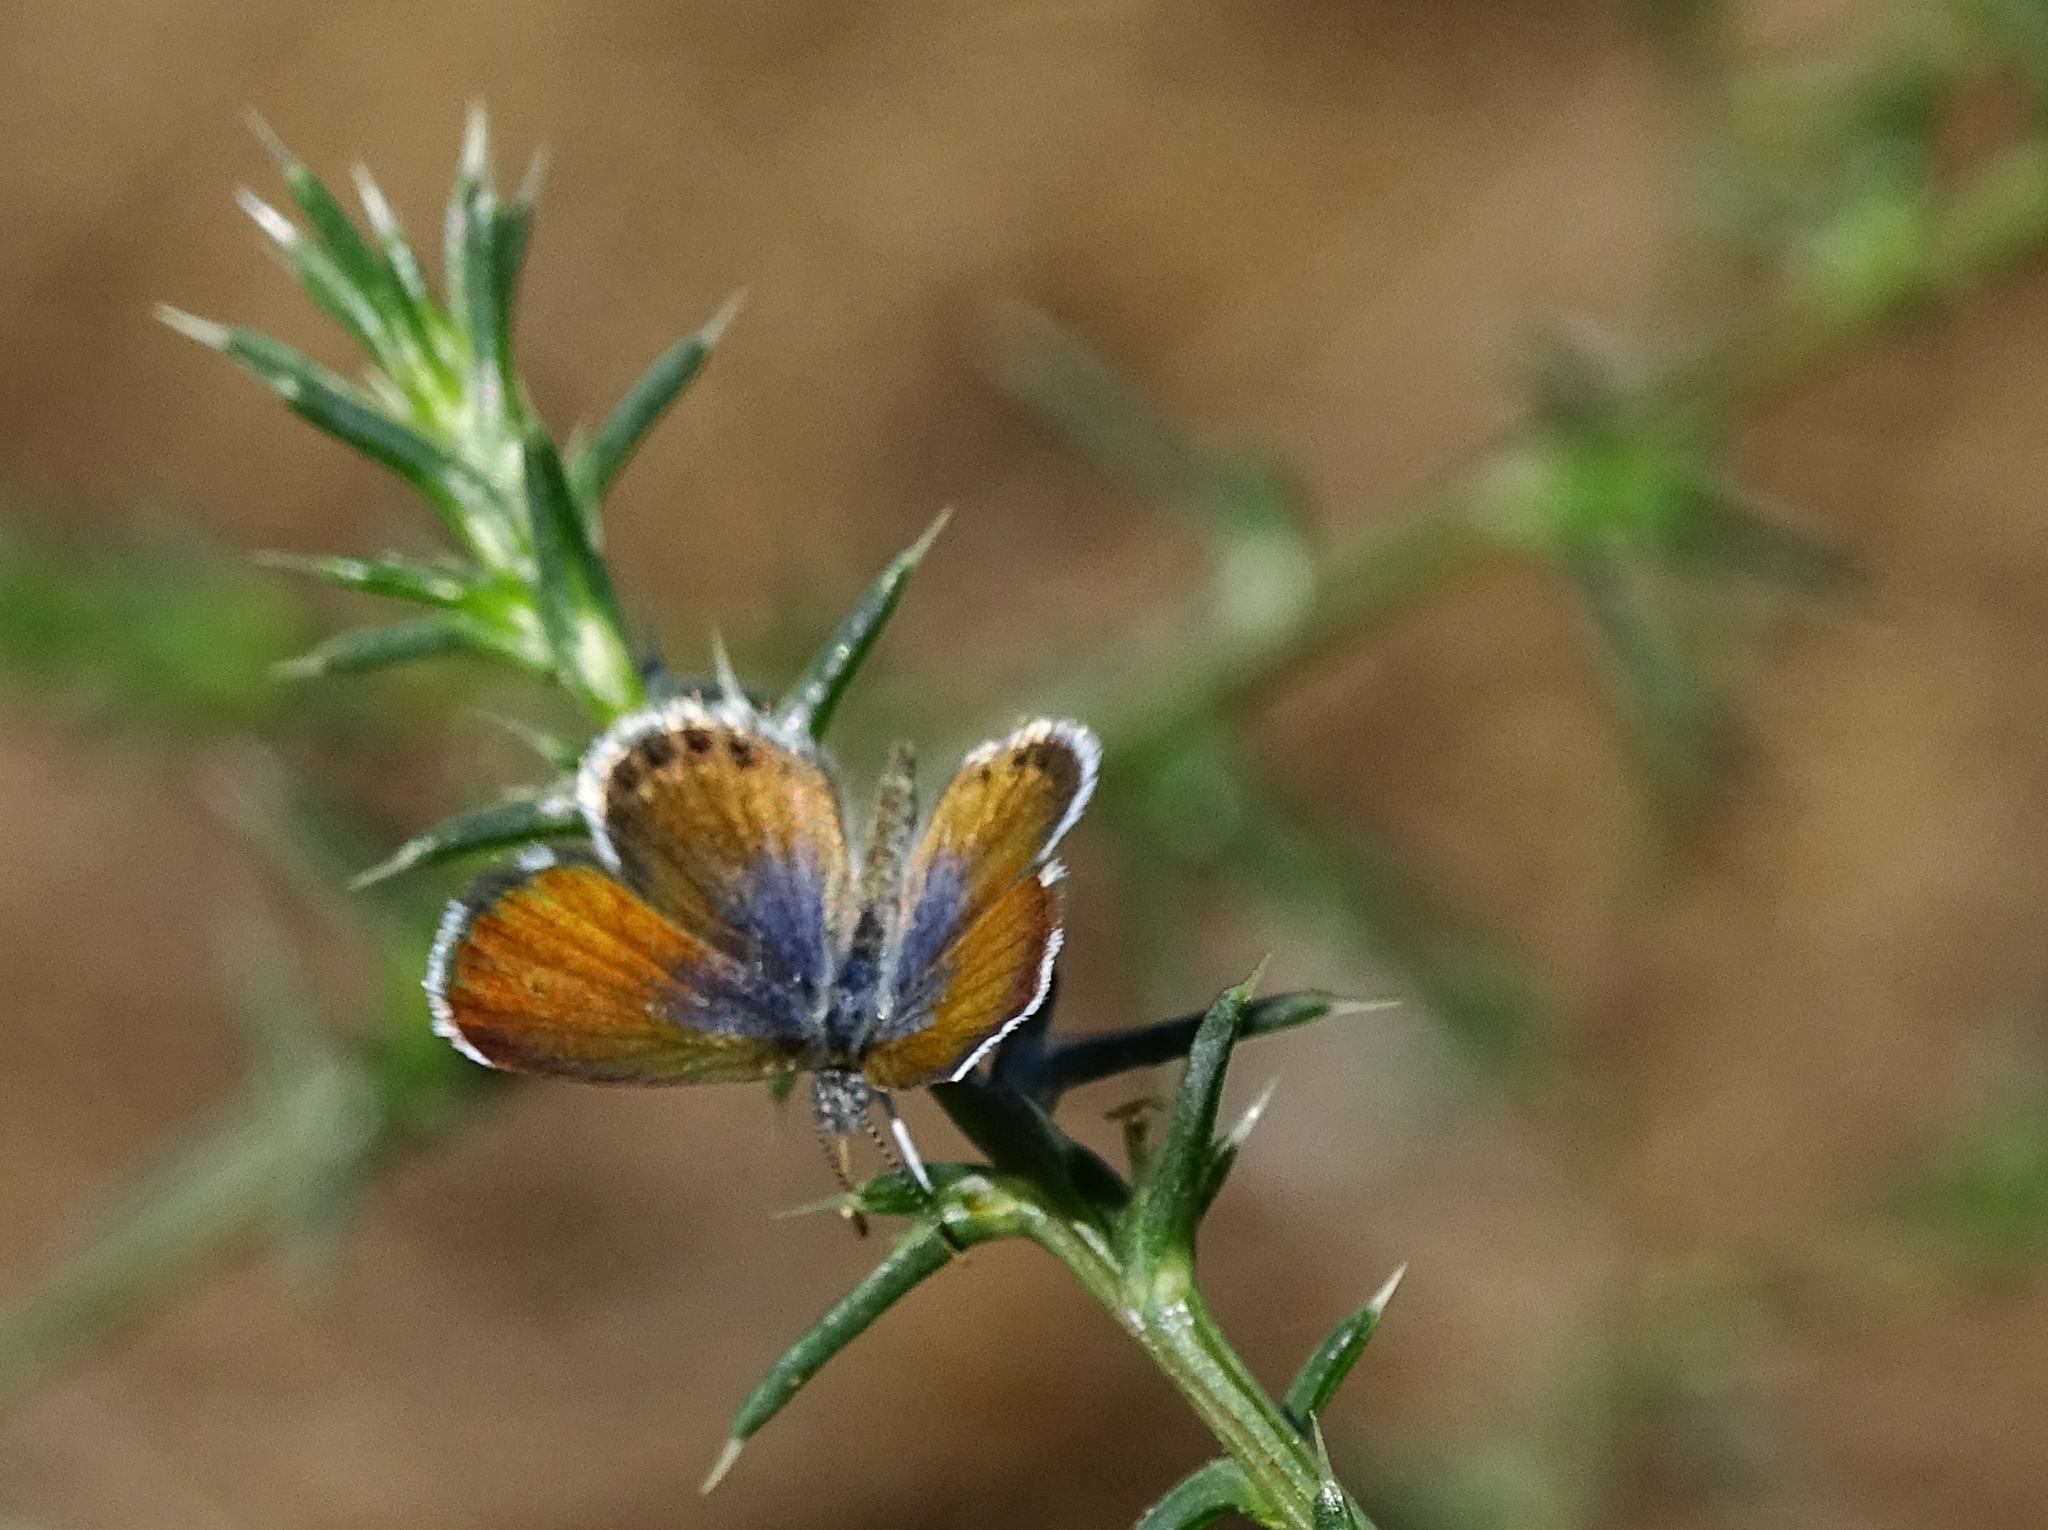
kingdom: Animalia
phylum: Arthropoda
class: Insecta
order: Lepidoptera
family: Lycaenidae
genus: Brephidium
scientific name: Brephidium exilis
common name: Pygmy blue
